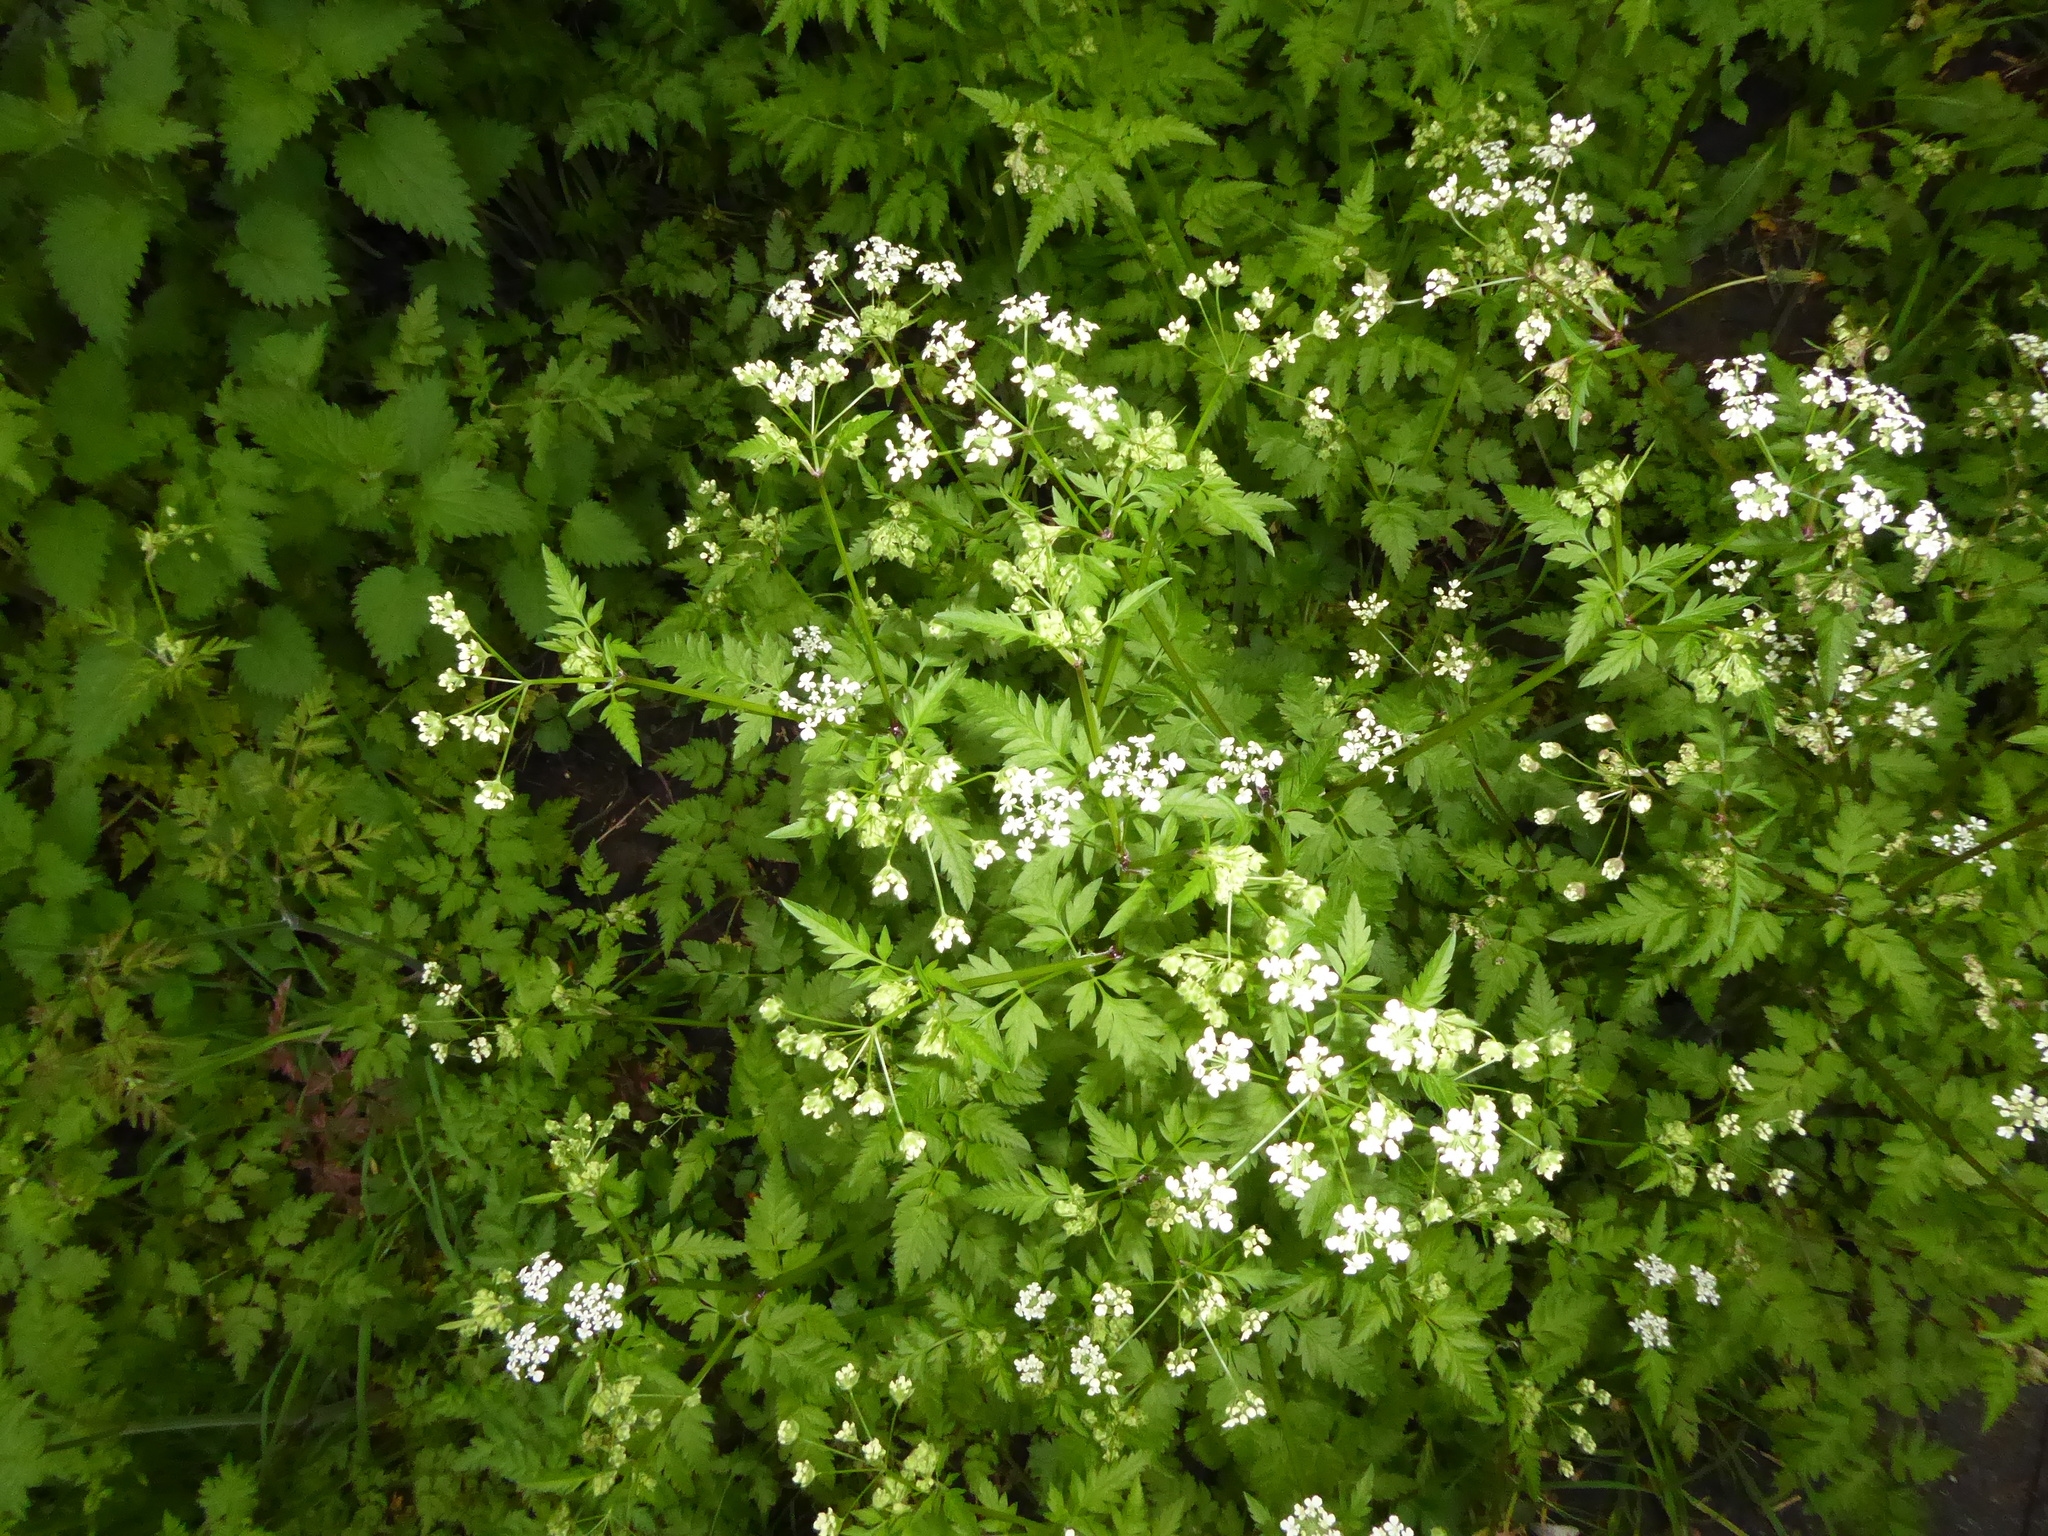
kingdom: Plantae
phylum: Tracheophyta
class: Magnoliopsida
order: Apiales
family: Apiaceae
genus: Anthriscus
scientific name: Anthriscus sylvestris
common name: Cow parsley
